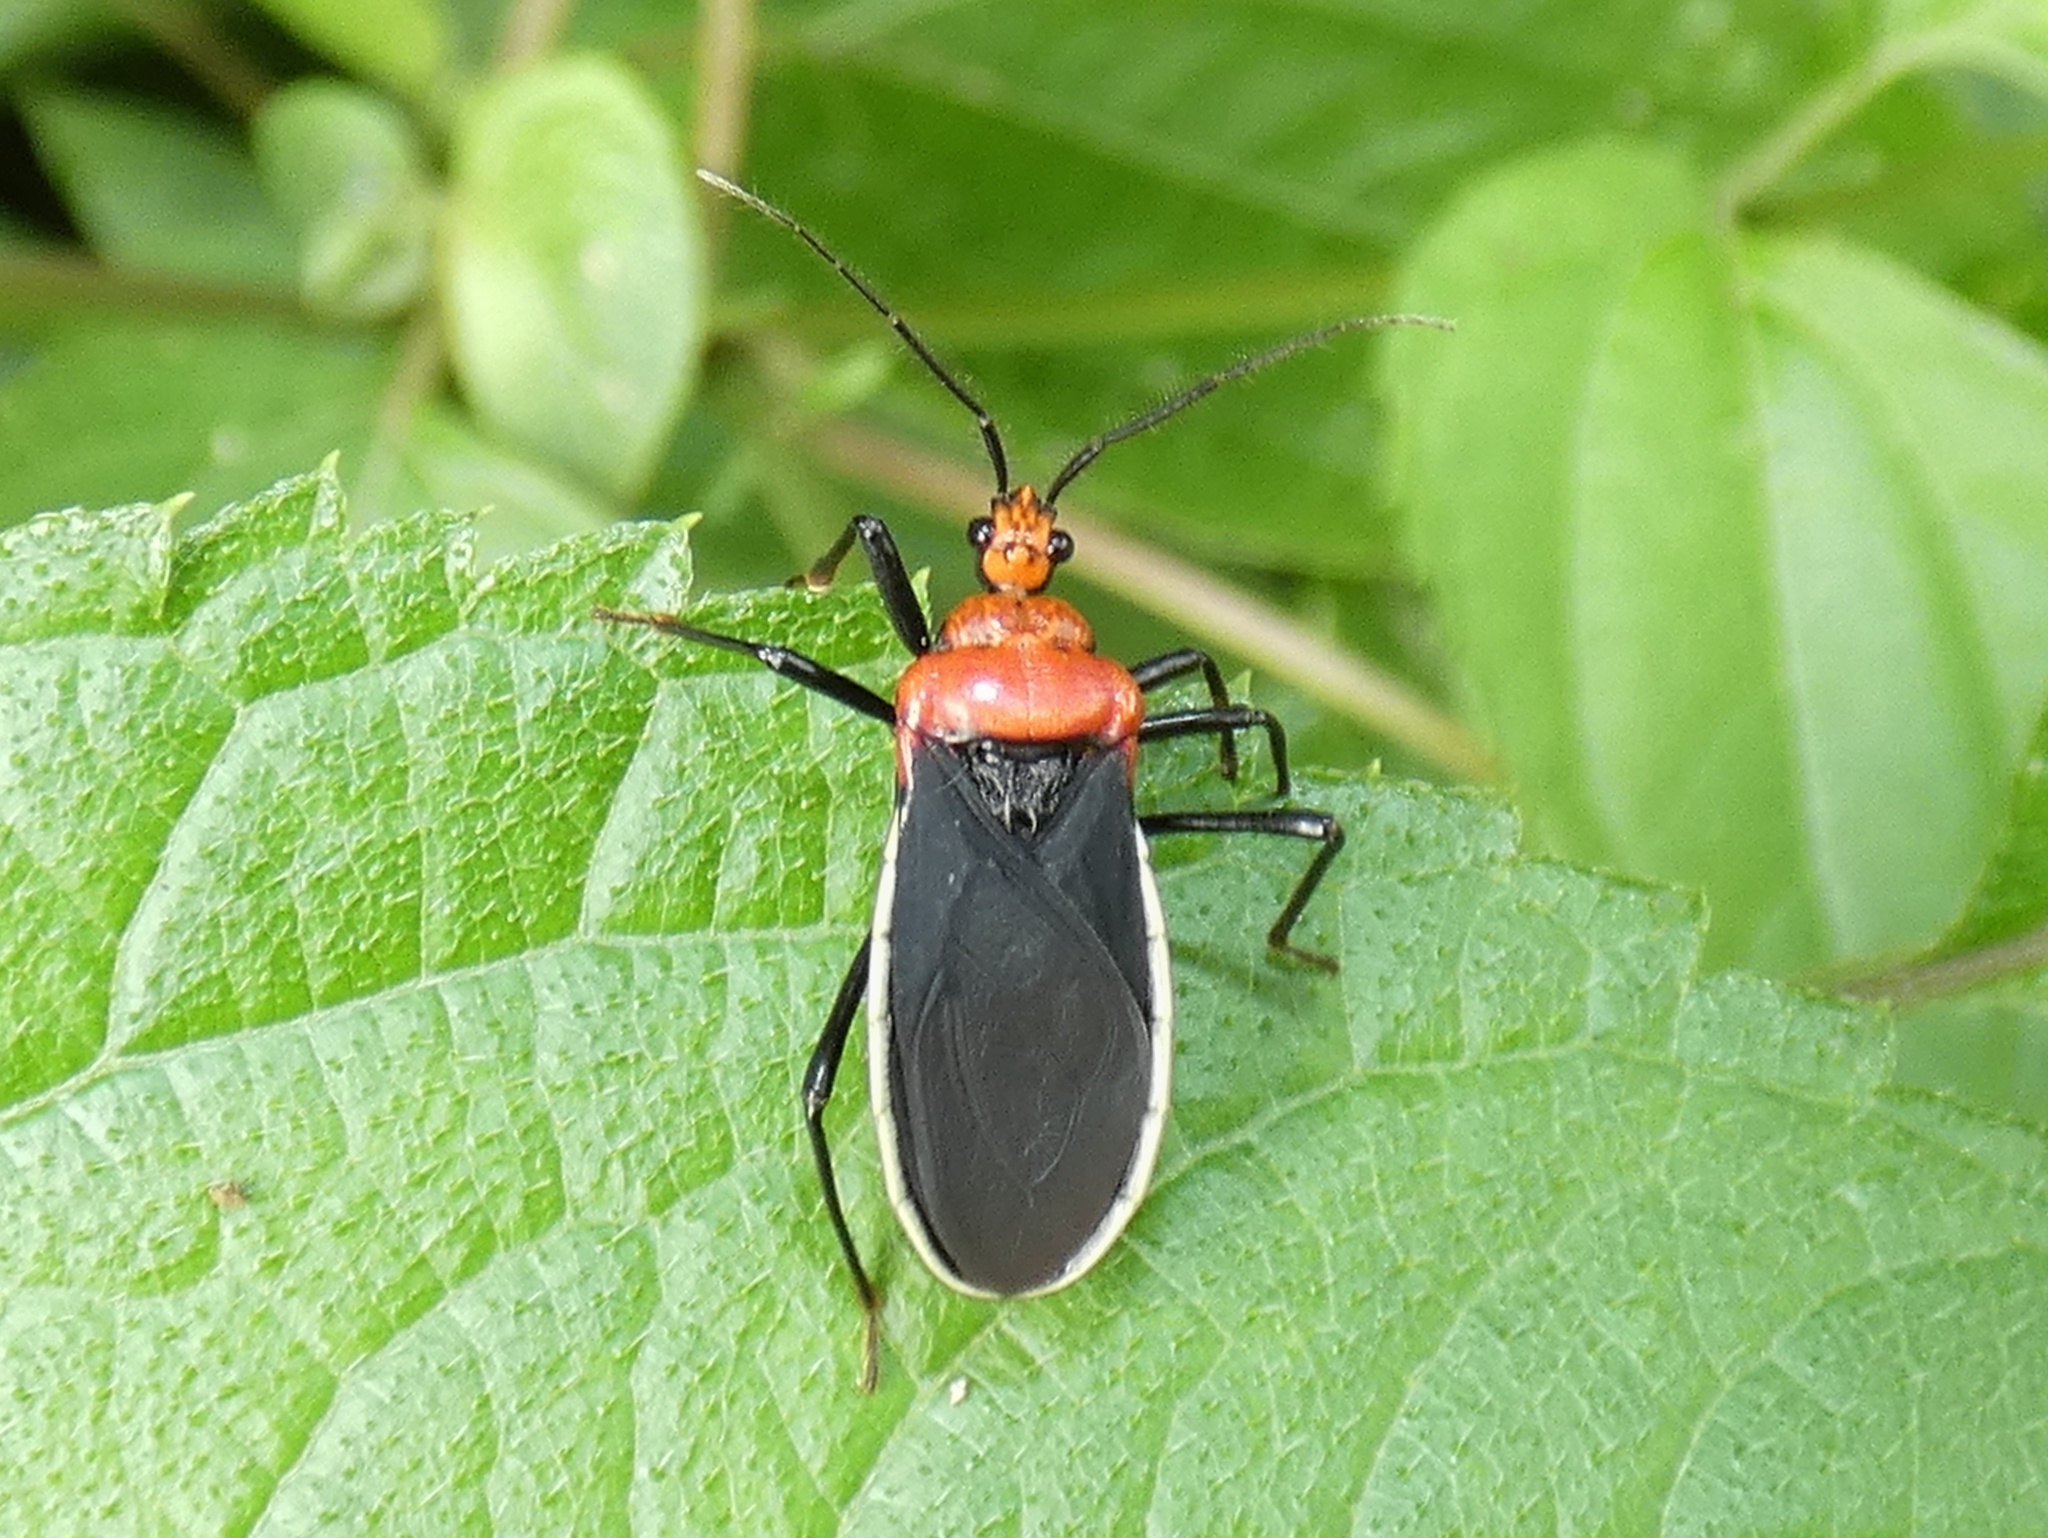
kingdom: Animalia
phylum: Arthropoda
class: Insecta
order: Hemiptera
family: Reduviidae
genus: Rhiginia
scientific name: Rhiginia bimaculata
